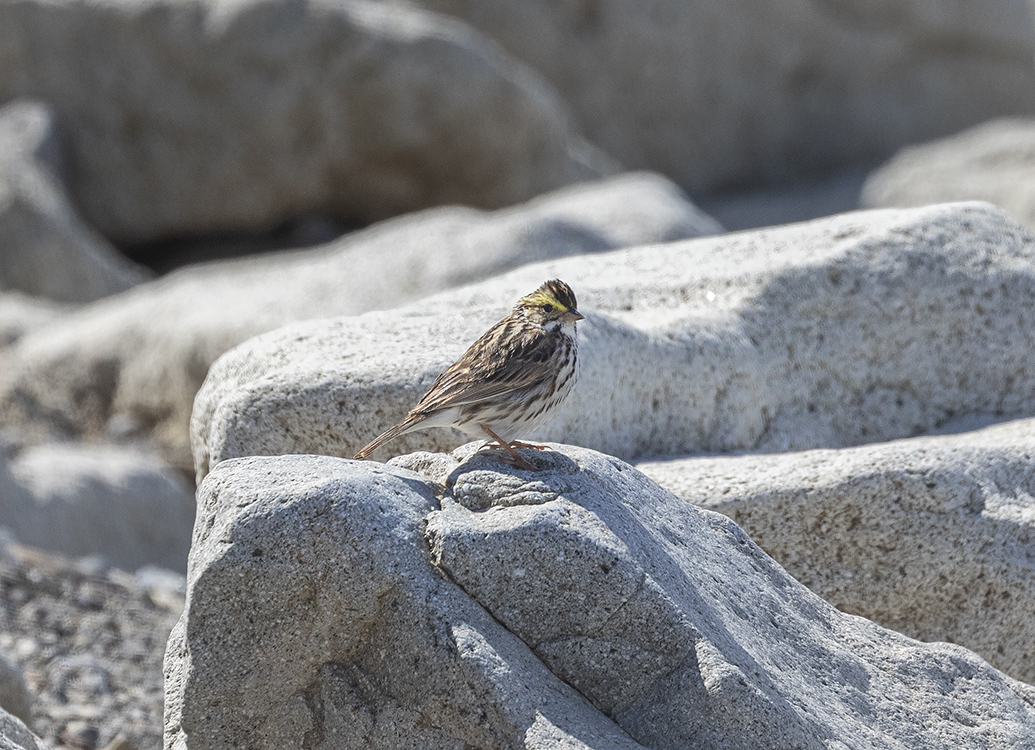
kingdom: Animalia
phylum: Chordata
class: Aves
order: Passeriformes
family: Passerellidae
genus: Passerculus
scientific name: Passerculus sandwichensis
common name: Savannah sparrow
